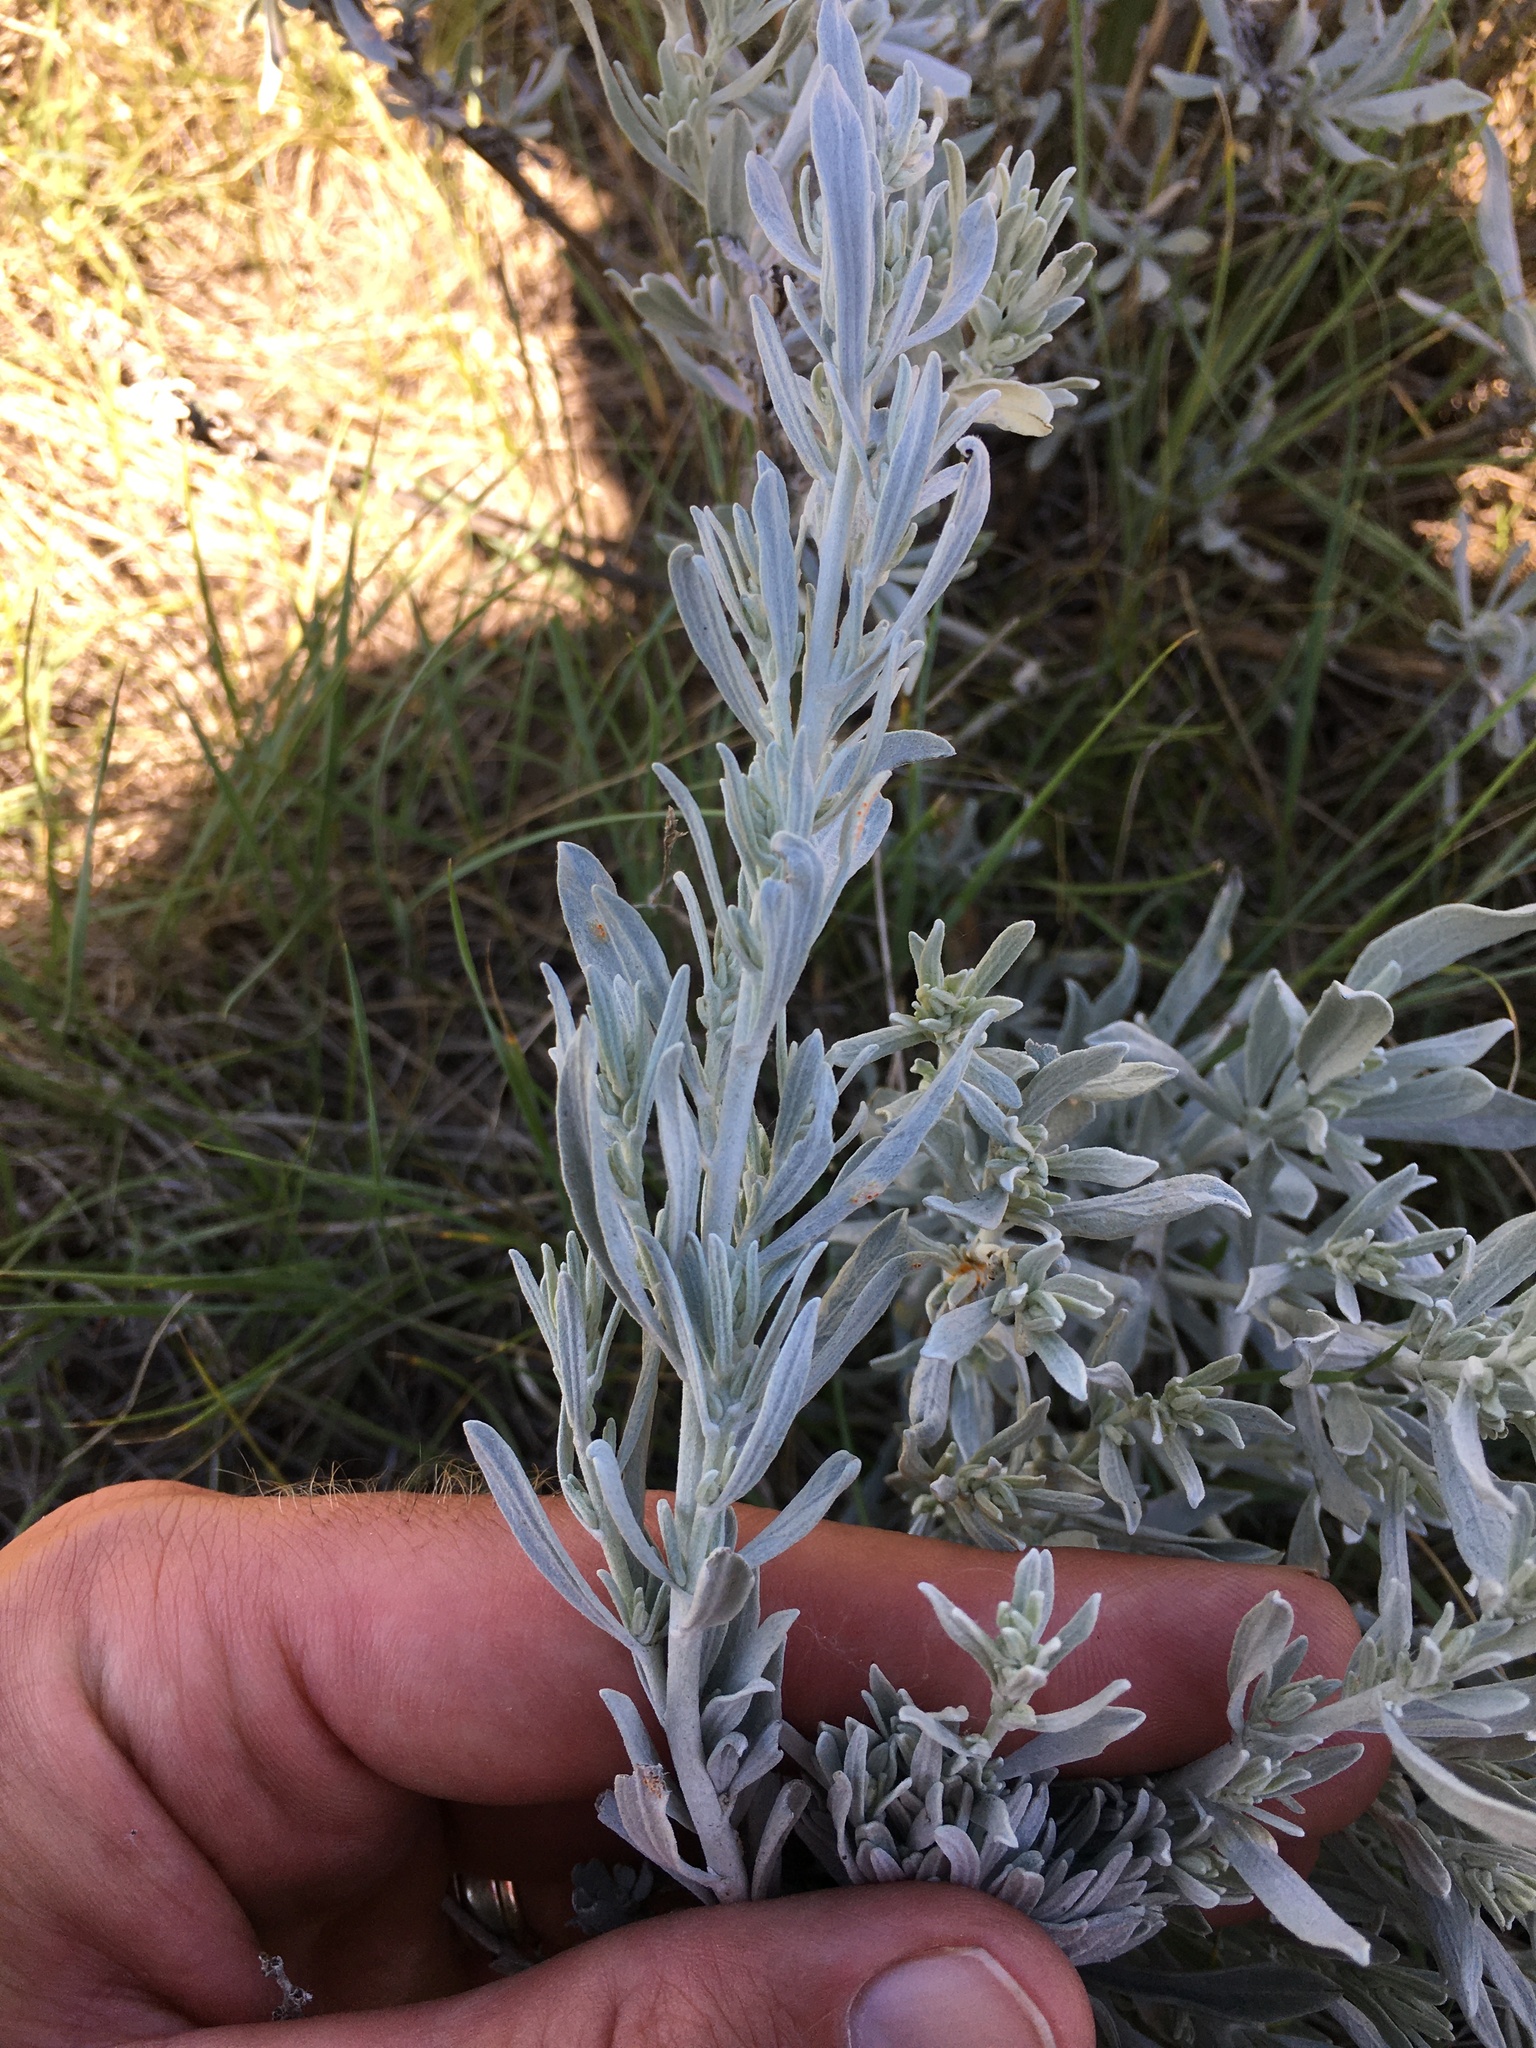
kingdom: Plantae
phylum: Tracheophyta
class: Magnoliopsida
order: Asterales
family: Asteraceae
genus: Artemisia
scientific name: Artemisia cana
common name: Silver sagebrush
